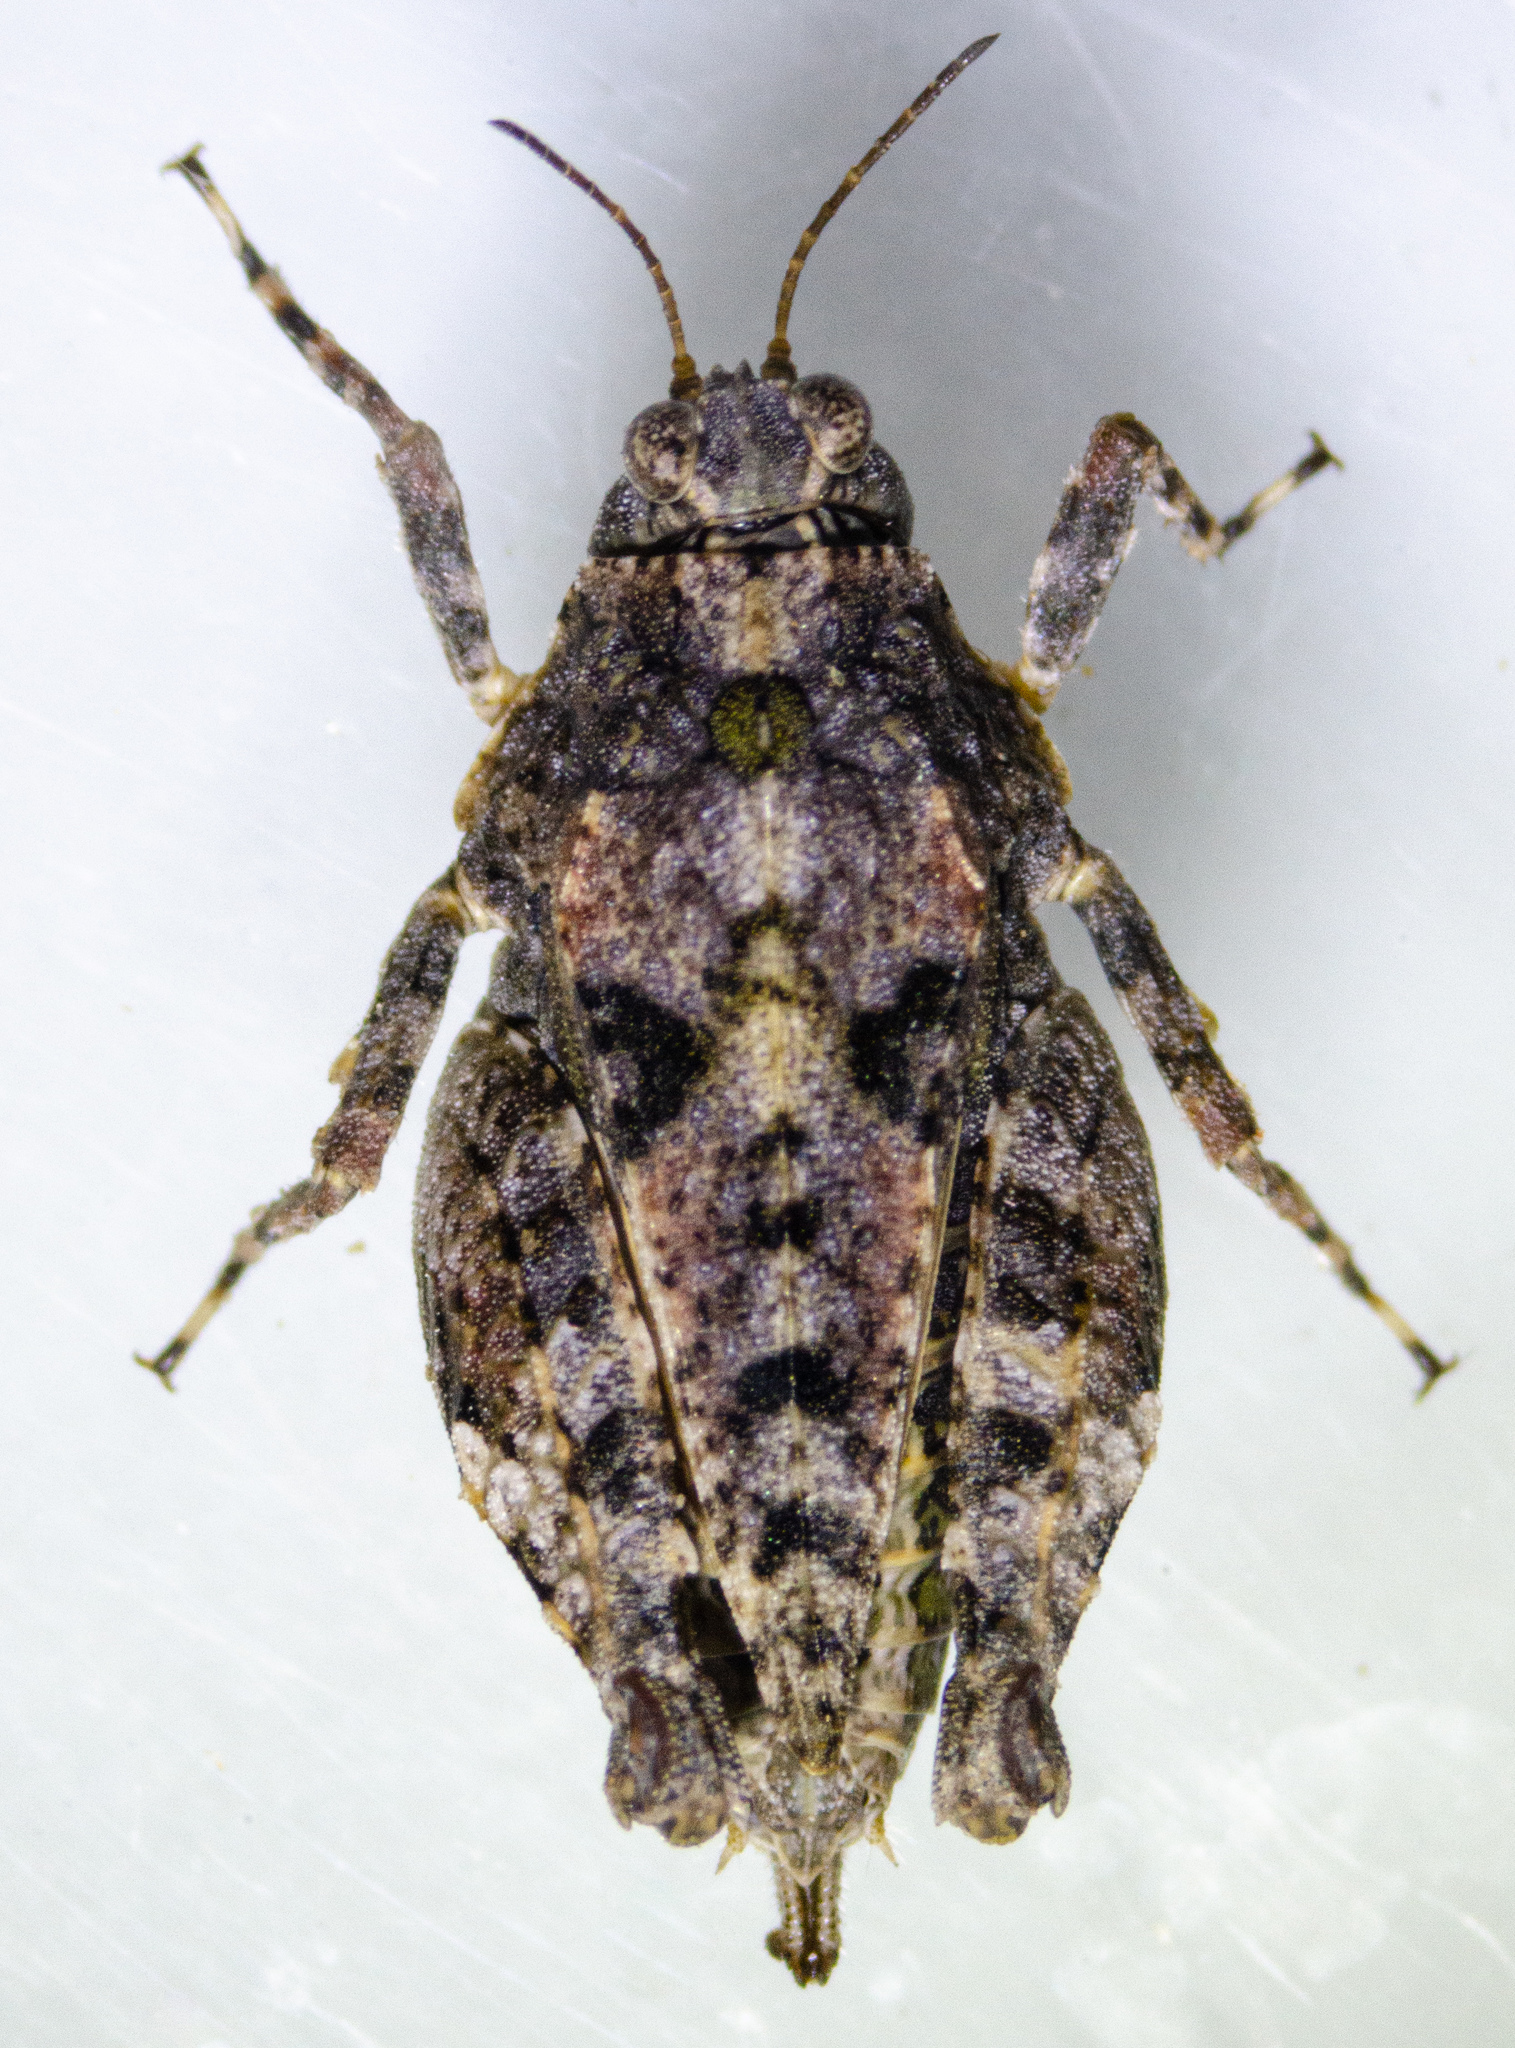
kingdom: Animalia
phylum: Arthropoda
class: Insecta
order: Orthoptera
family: Tetrigidae
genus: Paratettix
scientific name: Paratettix mexicanus
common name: Mexican pygmy grasshopper
